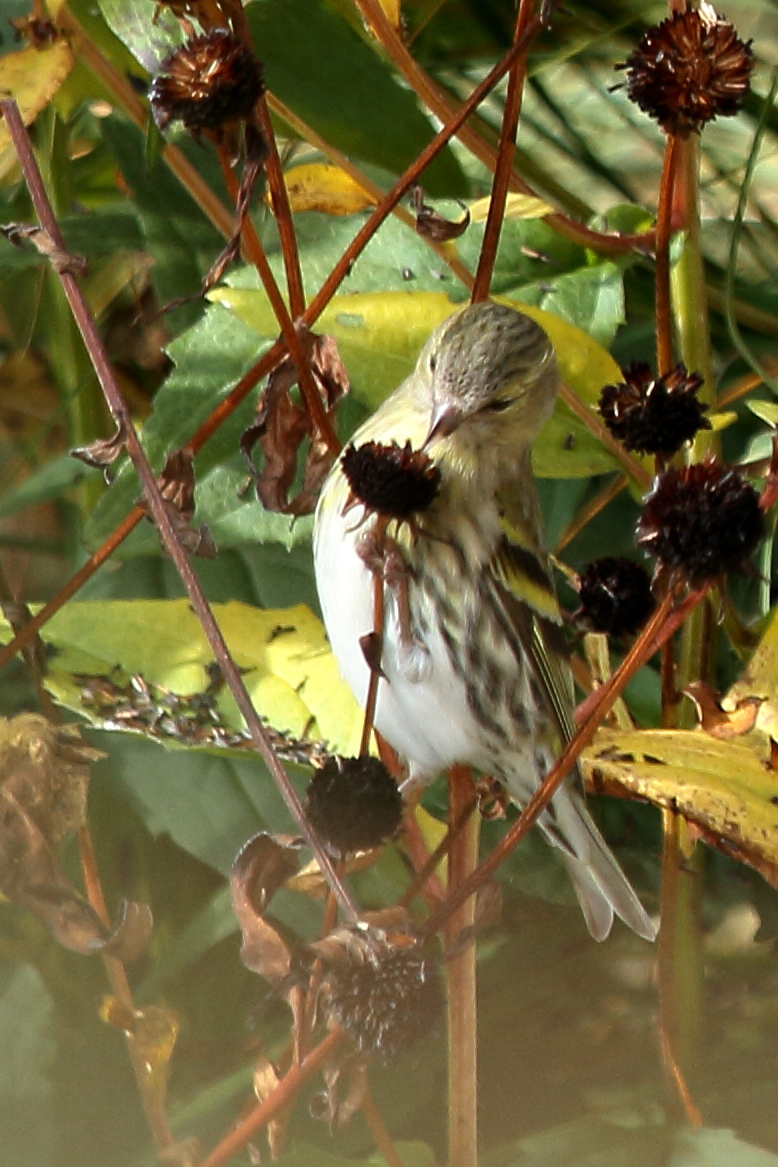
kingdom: Animalia
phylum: Chordata
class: Aves
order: Passeriformes
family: Fringillidae
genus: Spinus
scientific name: Spinus spinus
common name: Eurasian siskin
